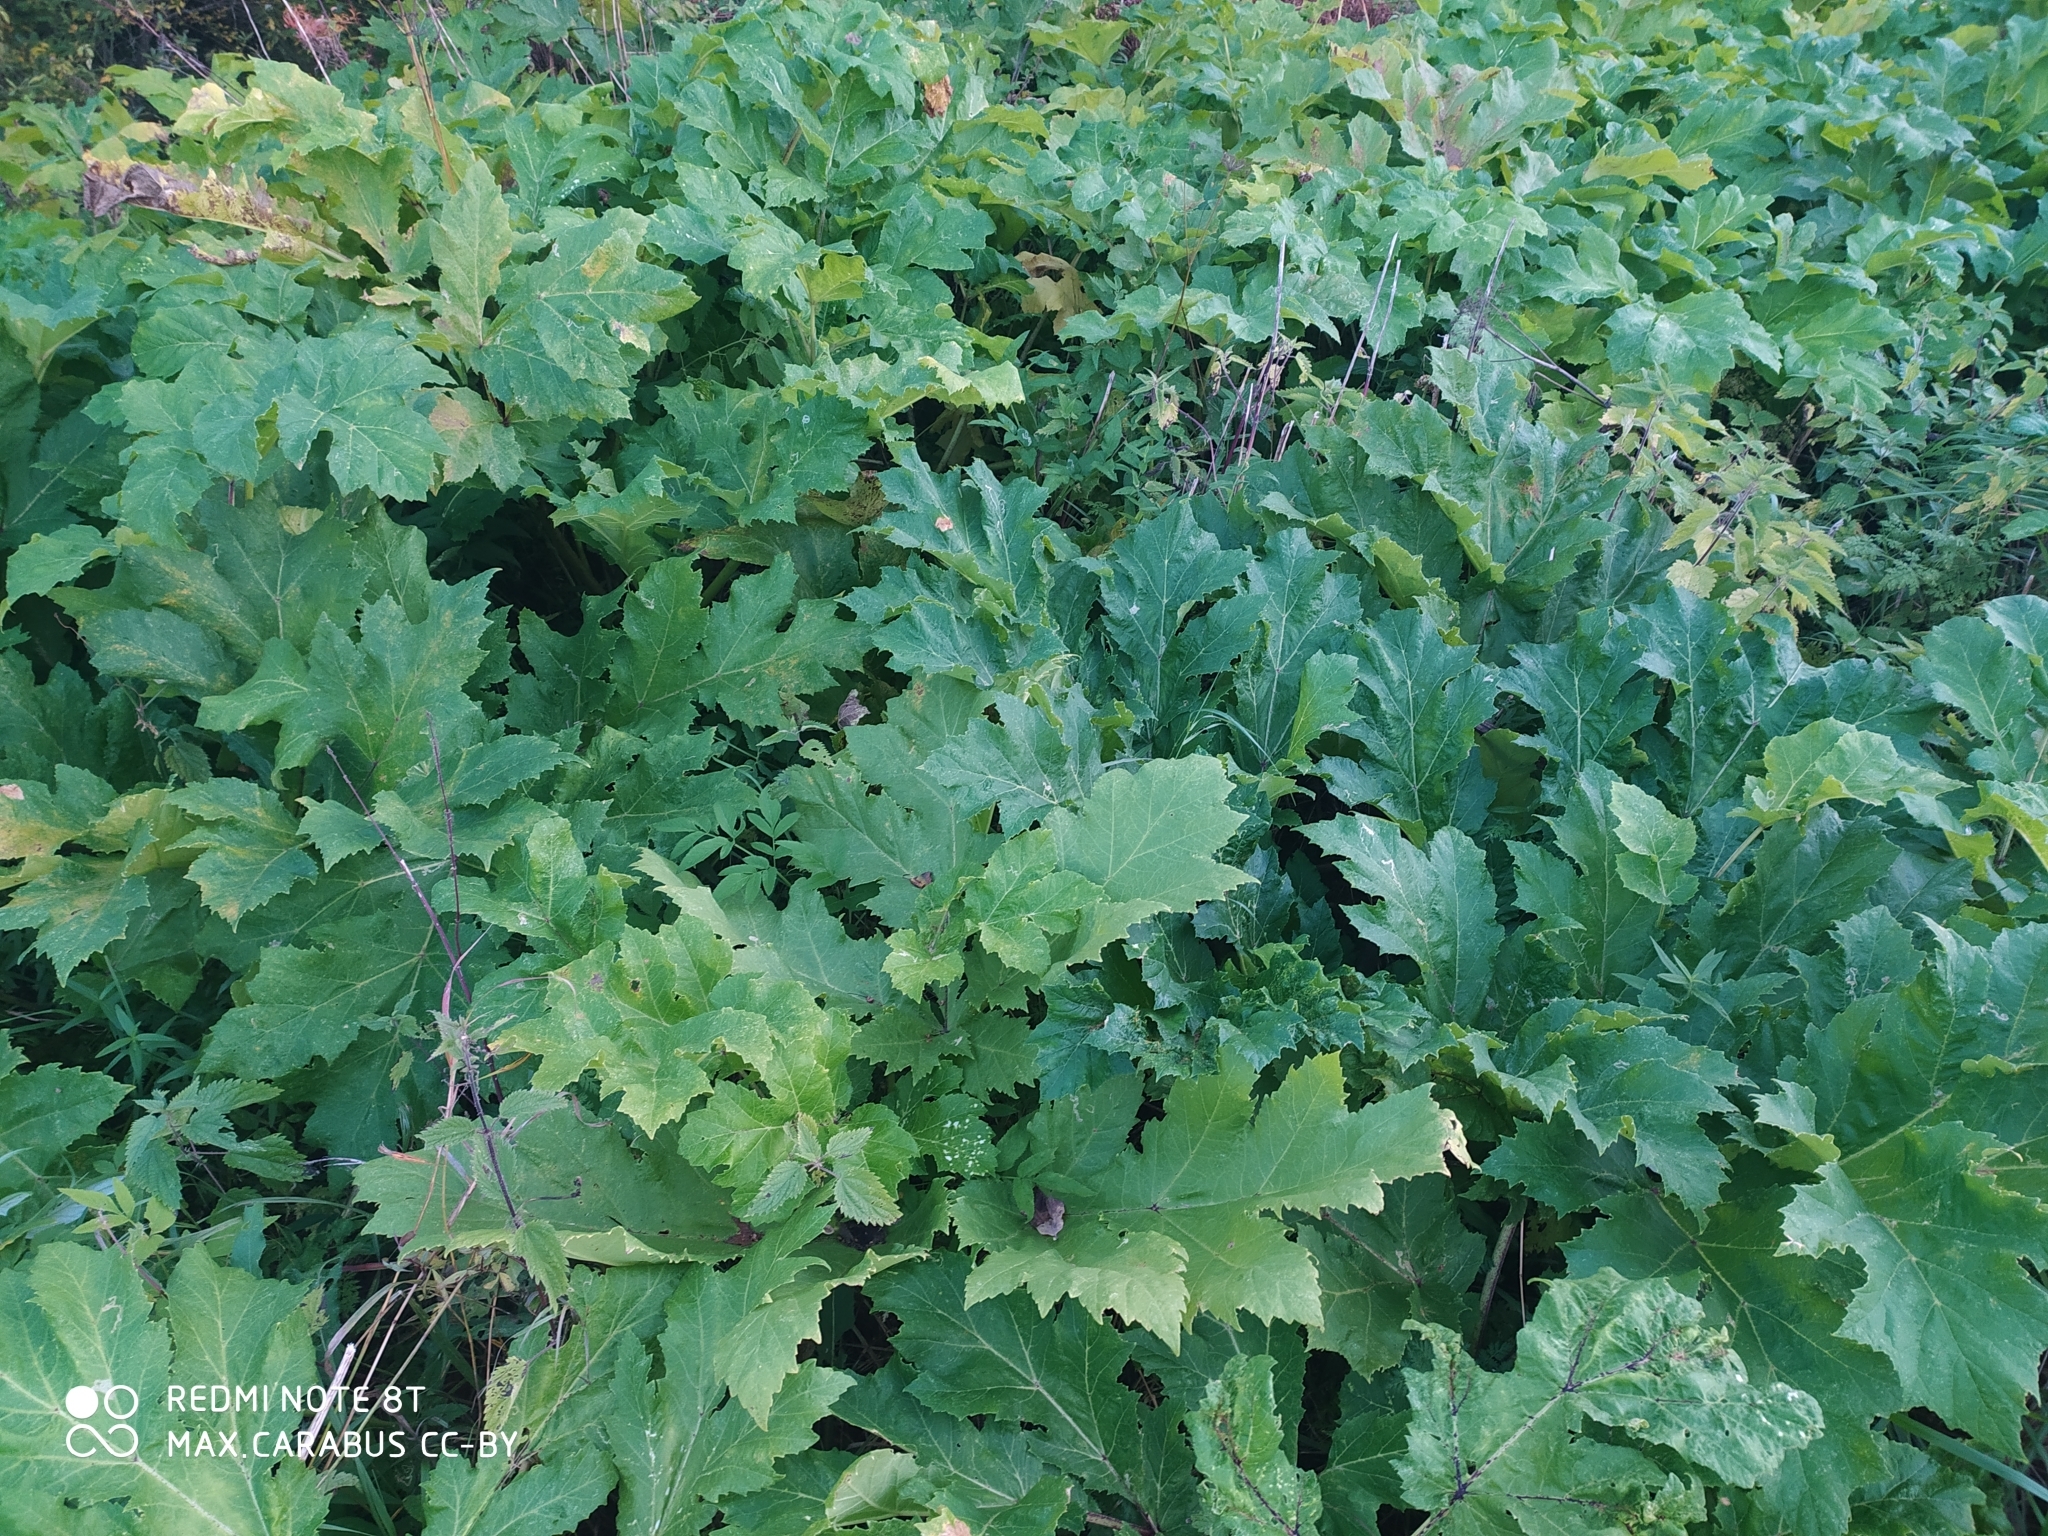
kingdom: Plantae
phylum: Tracheophyta
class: Magnoliopsida
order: Apiales
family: Apiaceae
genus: Heracleum
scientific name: Heracleum sosnowskyi
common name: Sosnowsky's hogweed
